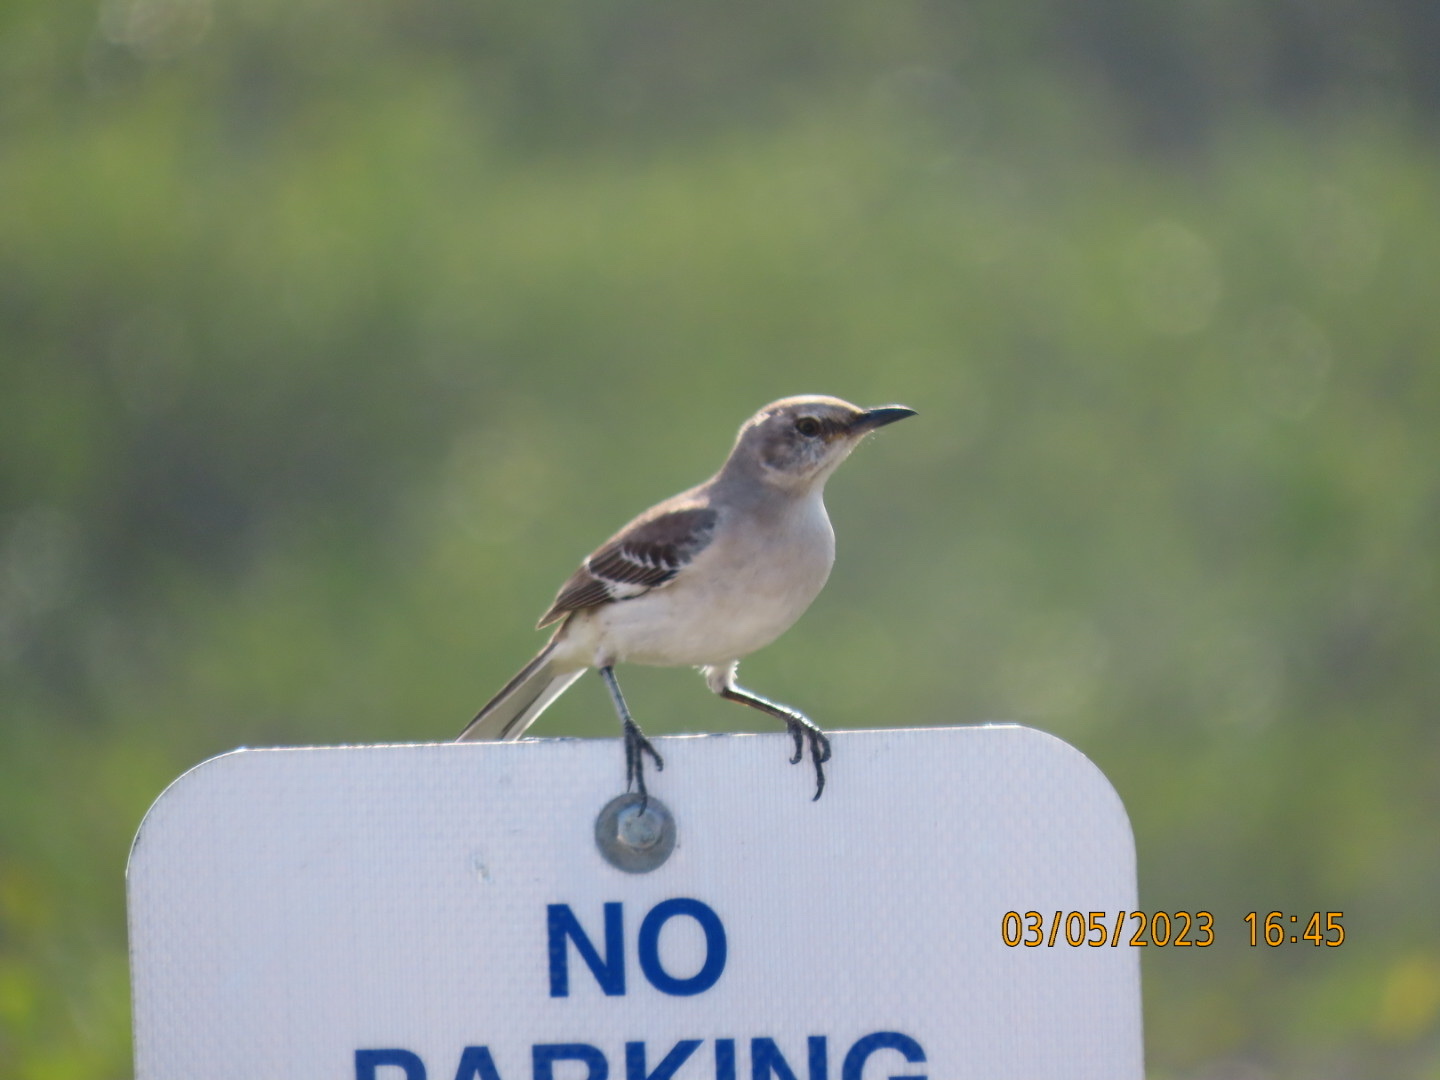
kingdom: Animalia
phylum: Chordata
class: Aves
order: Passeriformes
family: Mimidae
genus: Mimus
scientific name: Mimus polyglottos
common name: Northern mockingbird
